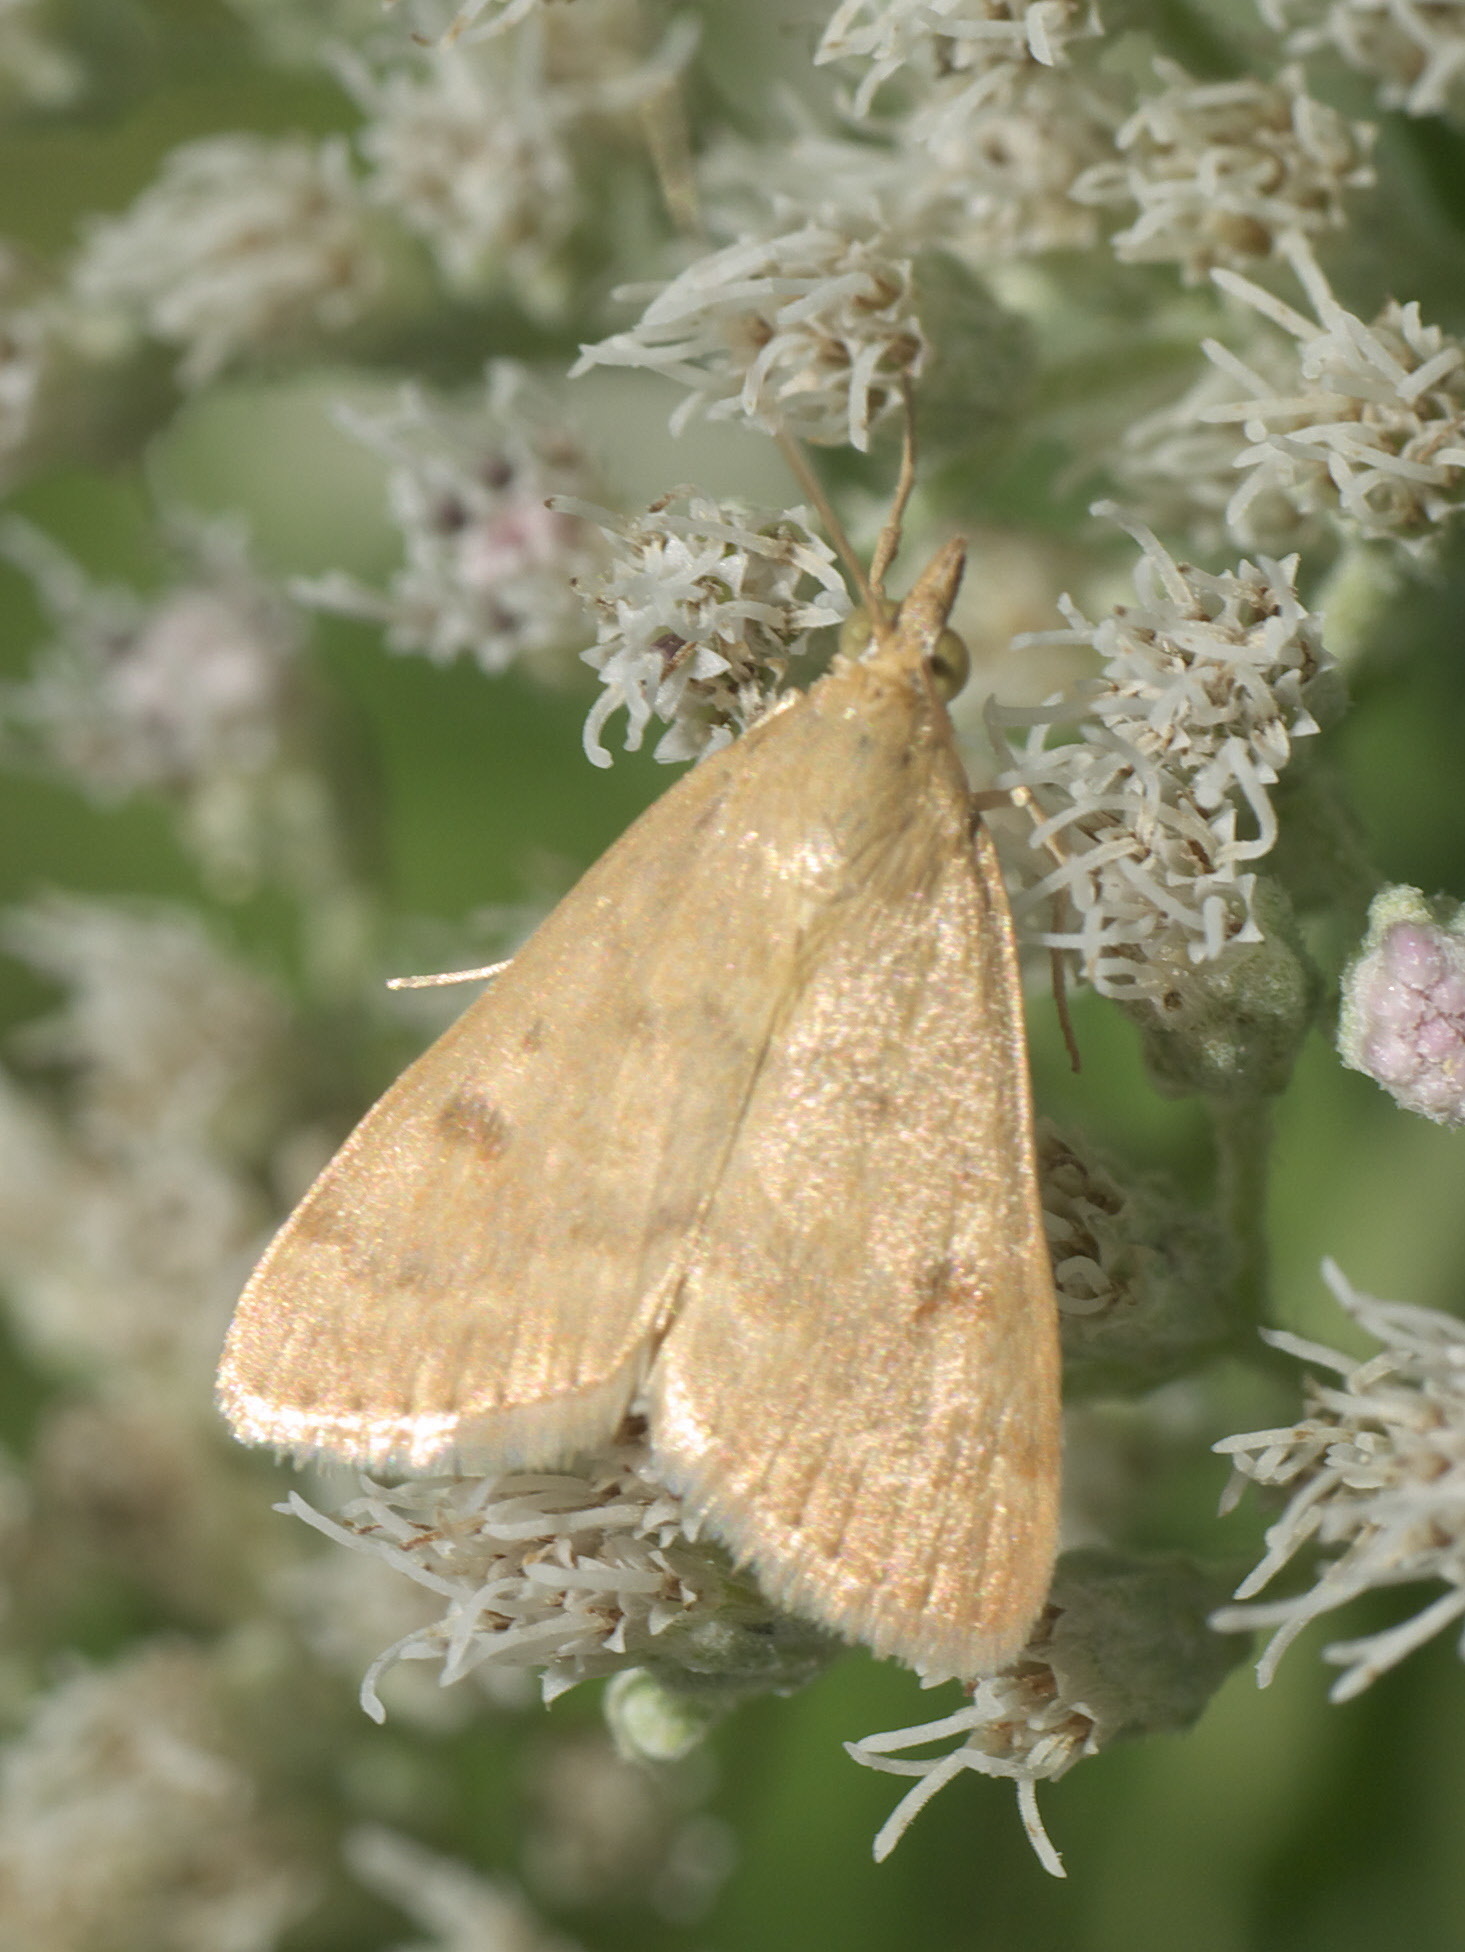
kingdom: Animalia
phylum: Arthropoda
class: Insecta
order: Lepidoptera
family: Crambidae
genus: Achyra
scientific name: Achyra rantalis
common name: Garden webworm
